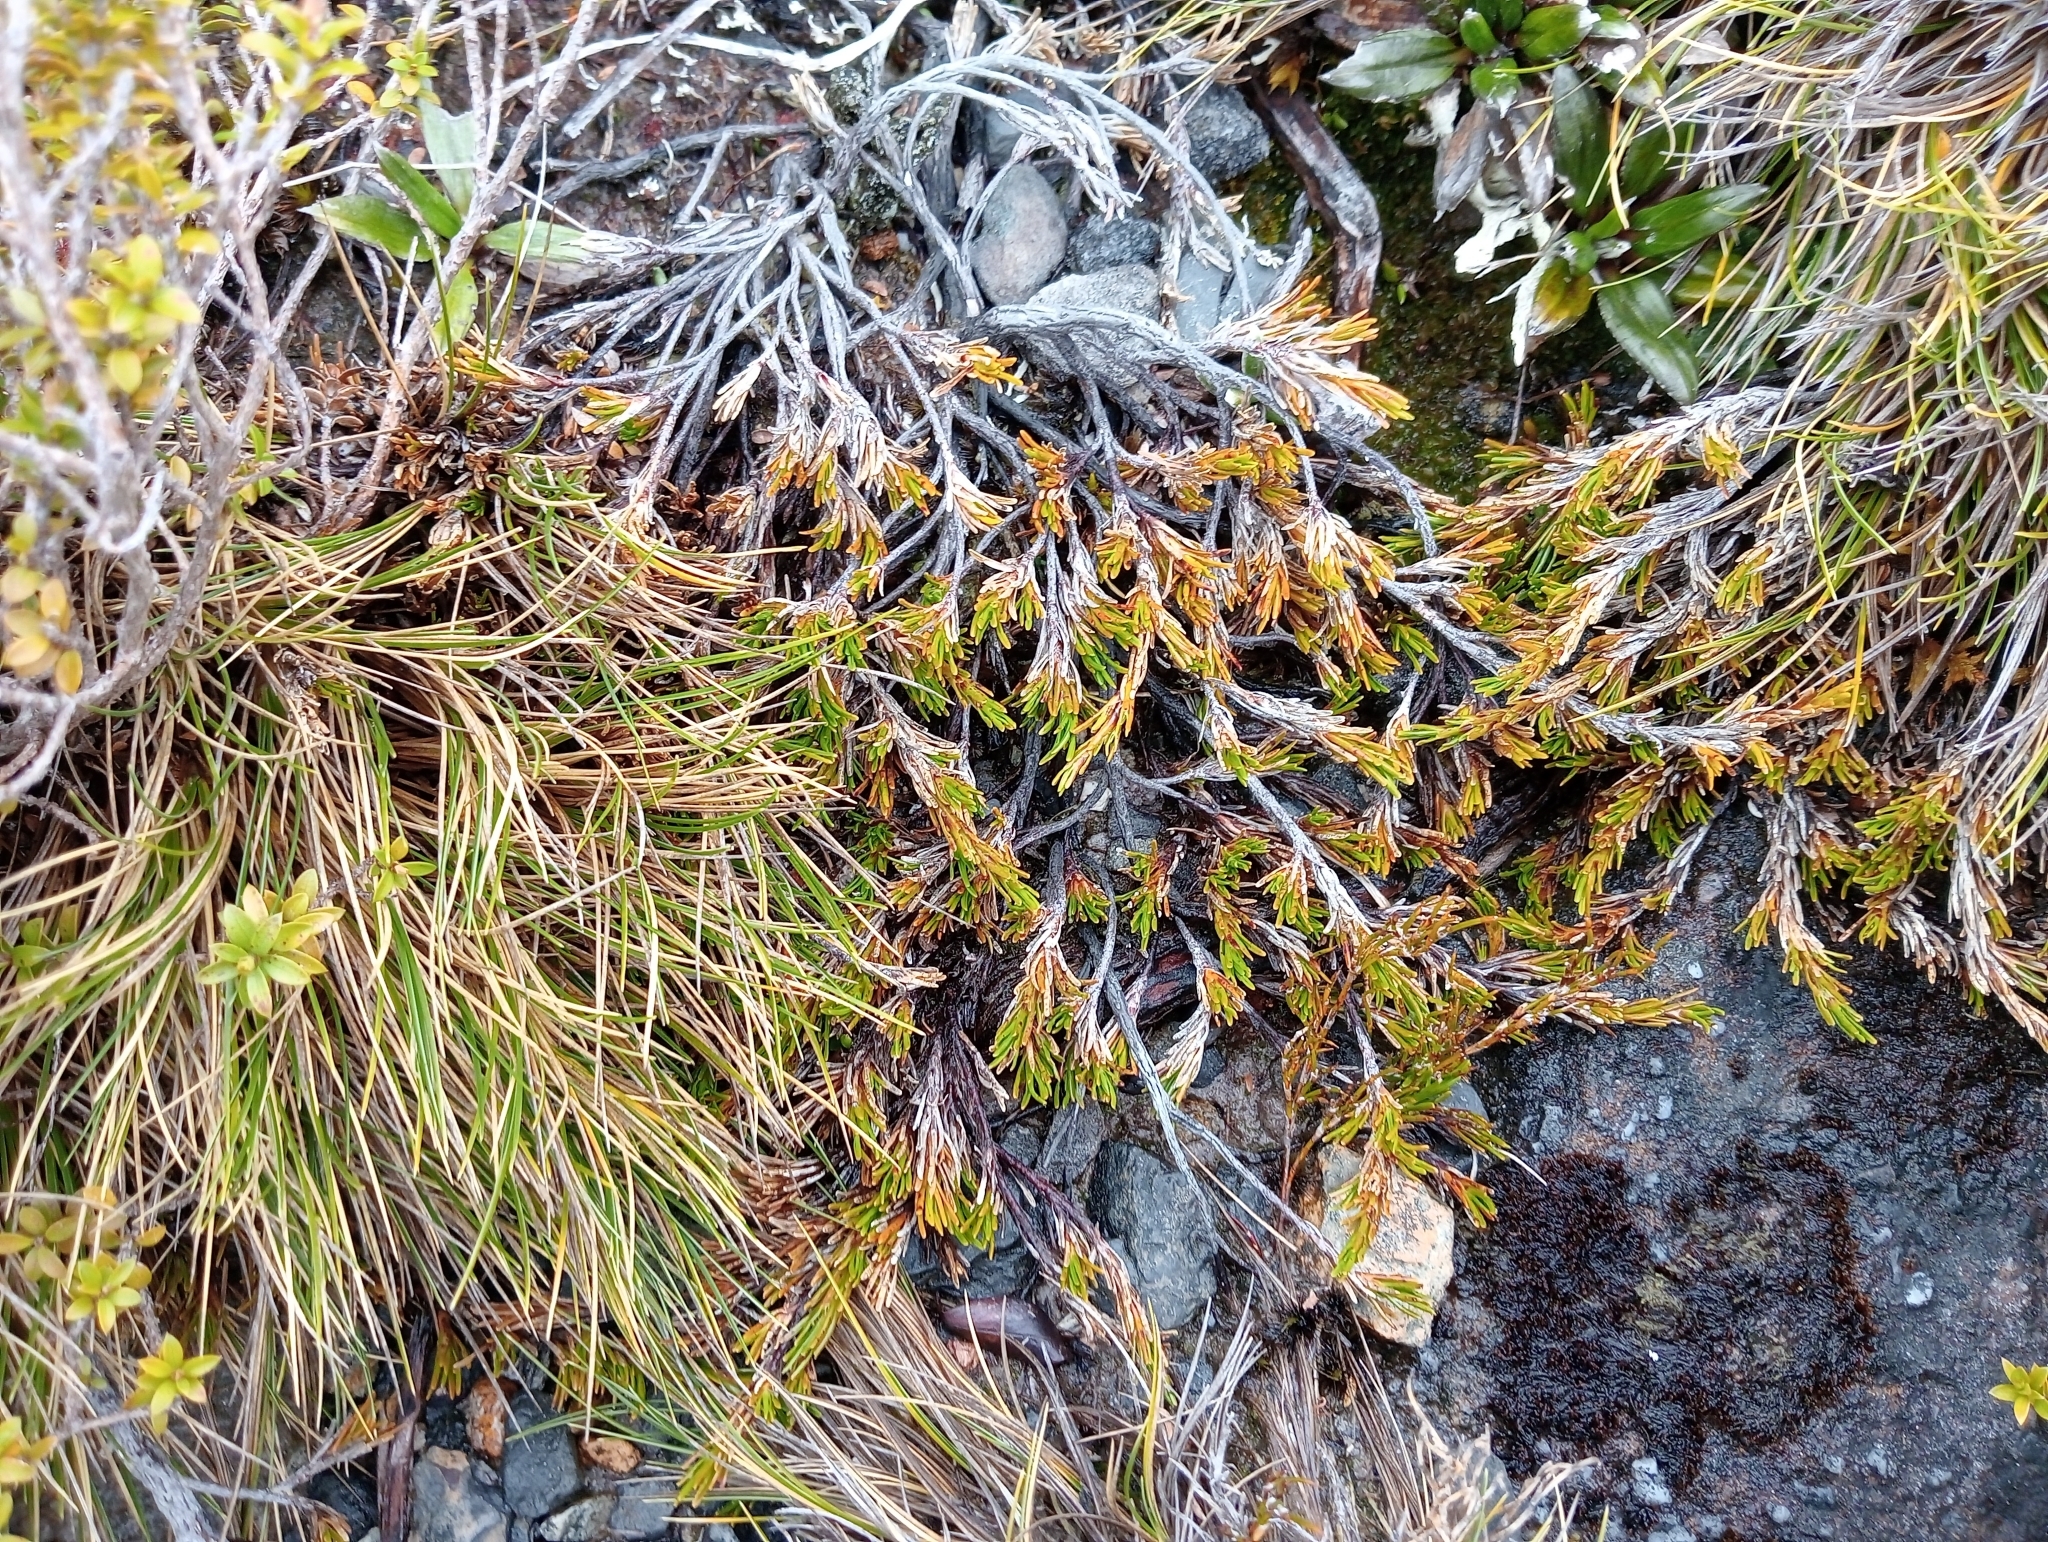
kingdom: Plantae
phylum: Tracheophyta
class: Magnoliopsida
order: Ericales
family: Ericaceae
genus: Dracophyllum
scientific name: Dracophyllum densum
